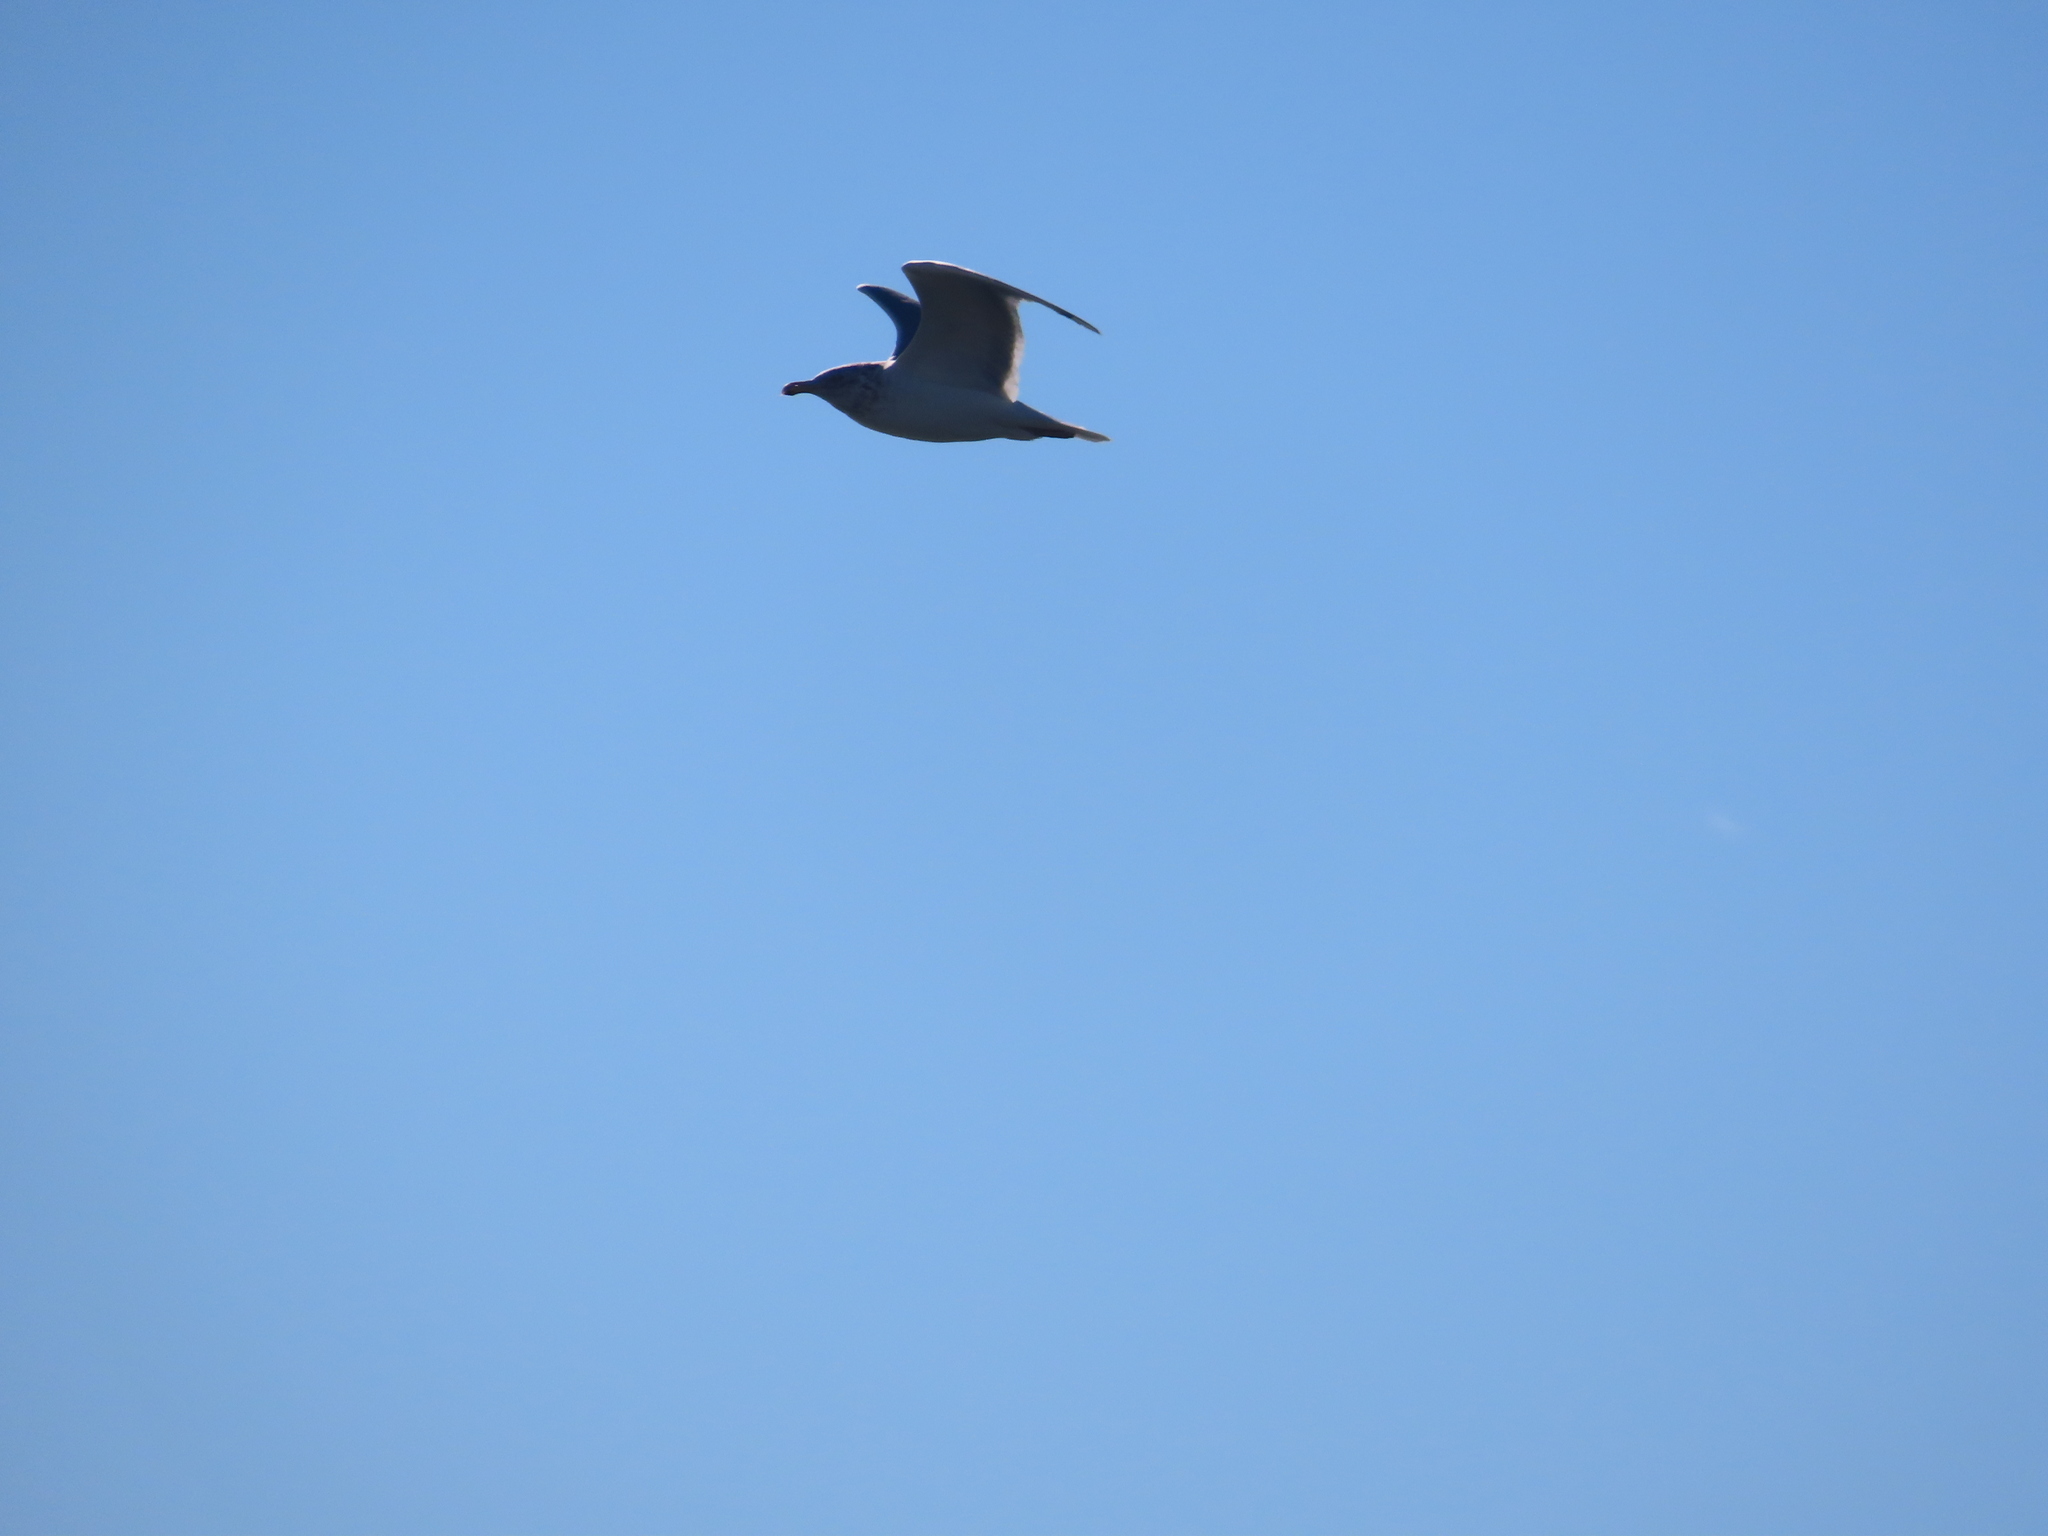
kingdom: Animalia
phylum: Chordata
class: Aves
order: Charadriiformes
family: Laridae
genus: Larus
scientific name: Larus argentatus
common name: Herring gull
